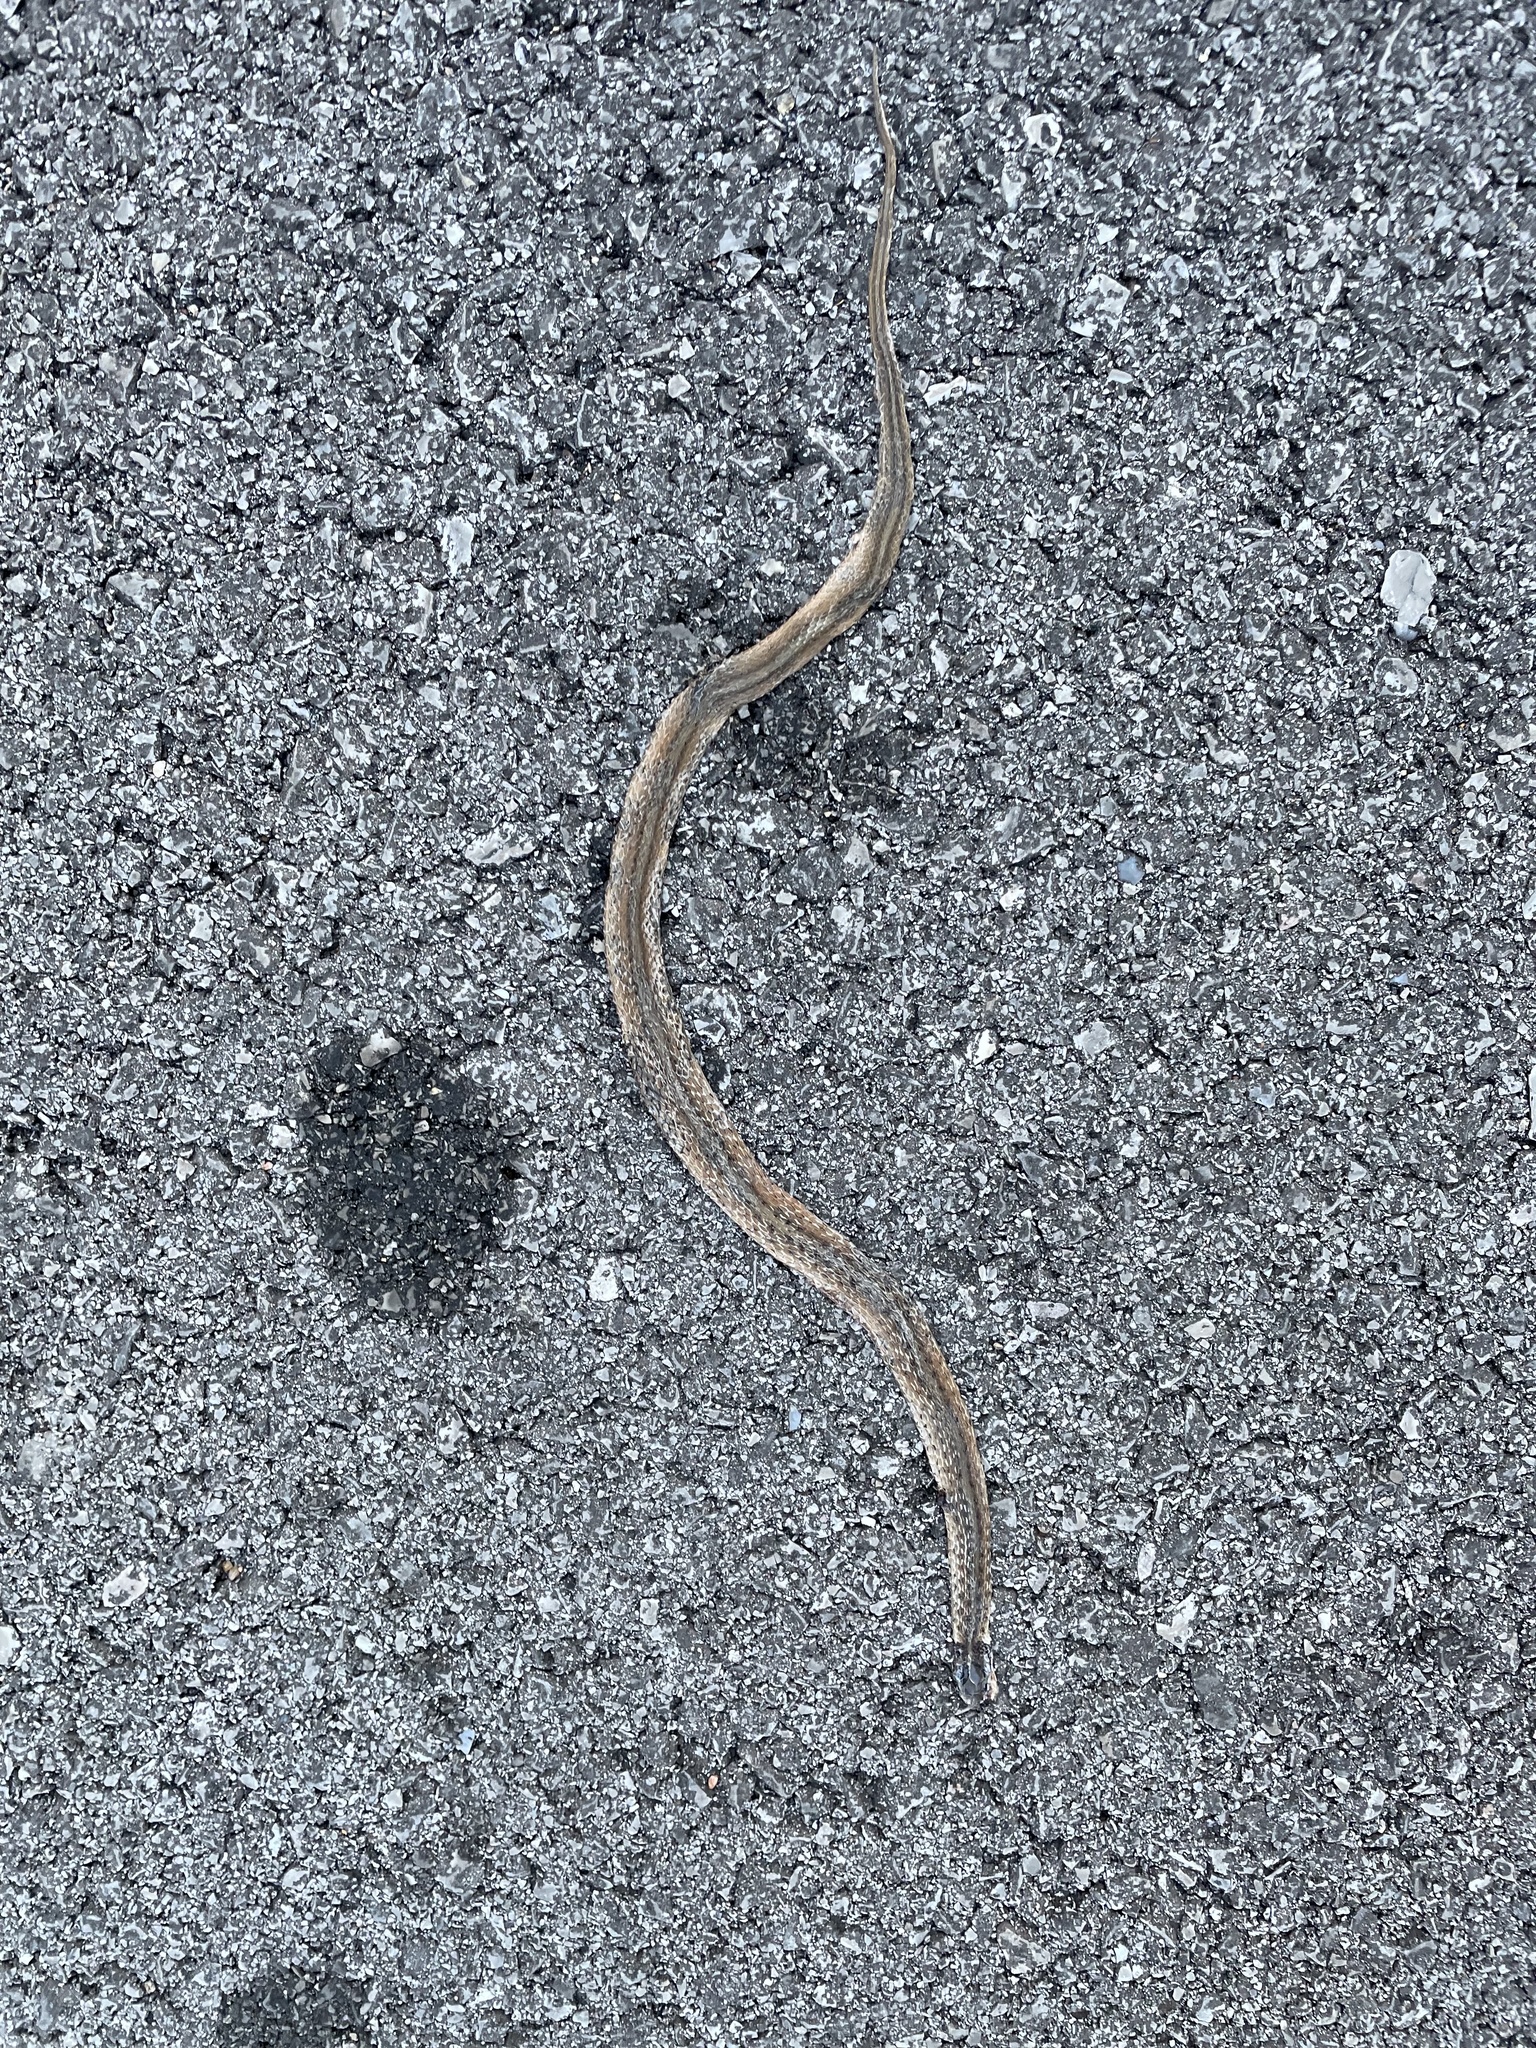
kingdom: Animalia
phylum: Chordata
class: Squamata
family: Colubridae
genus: Storeria
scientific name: Storeria dekayi
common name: (dekay’s) brown snake
